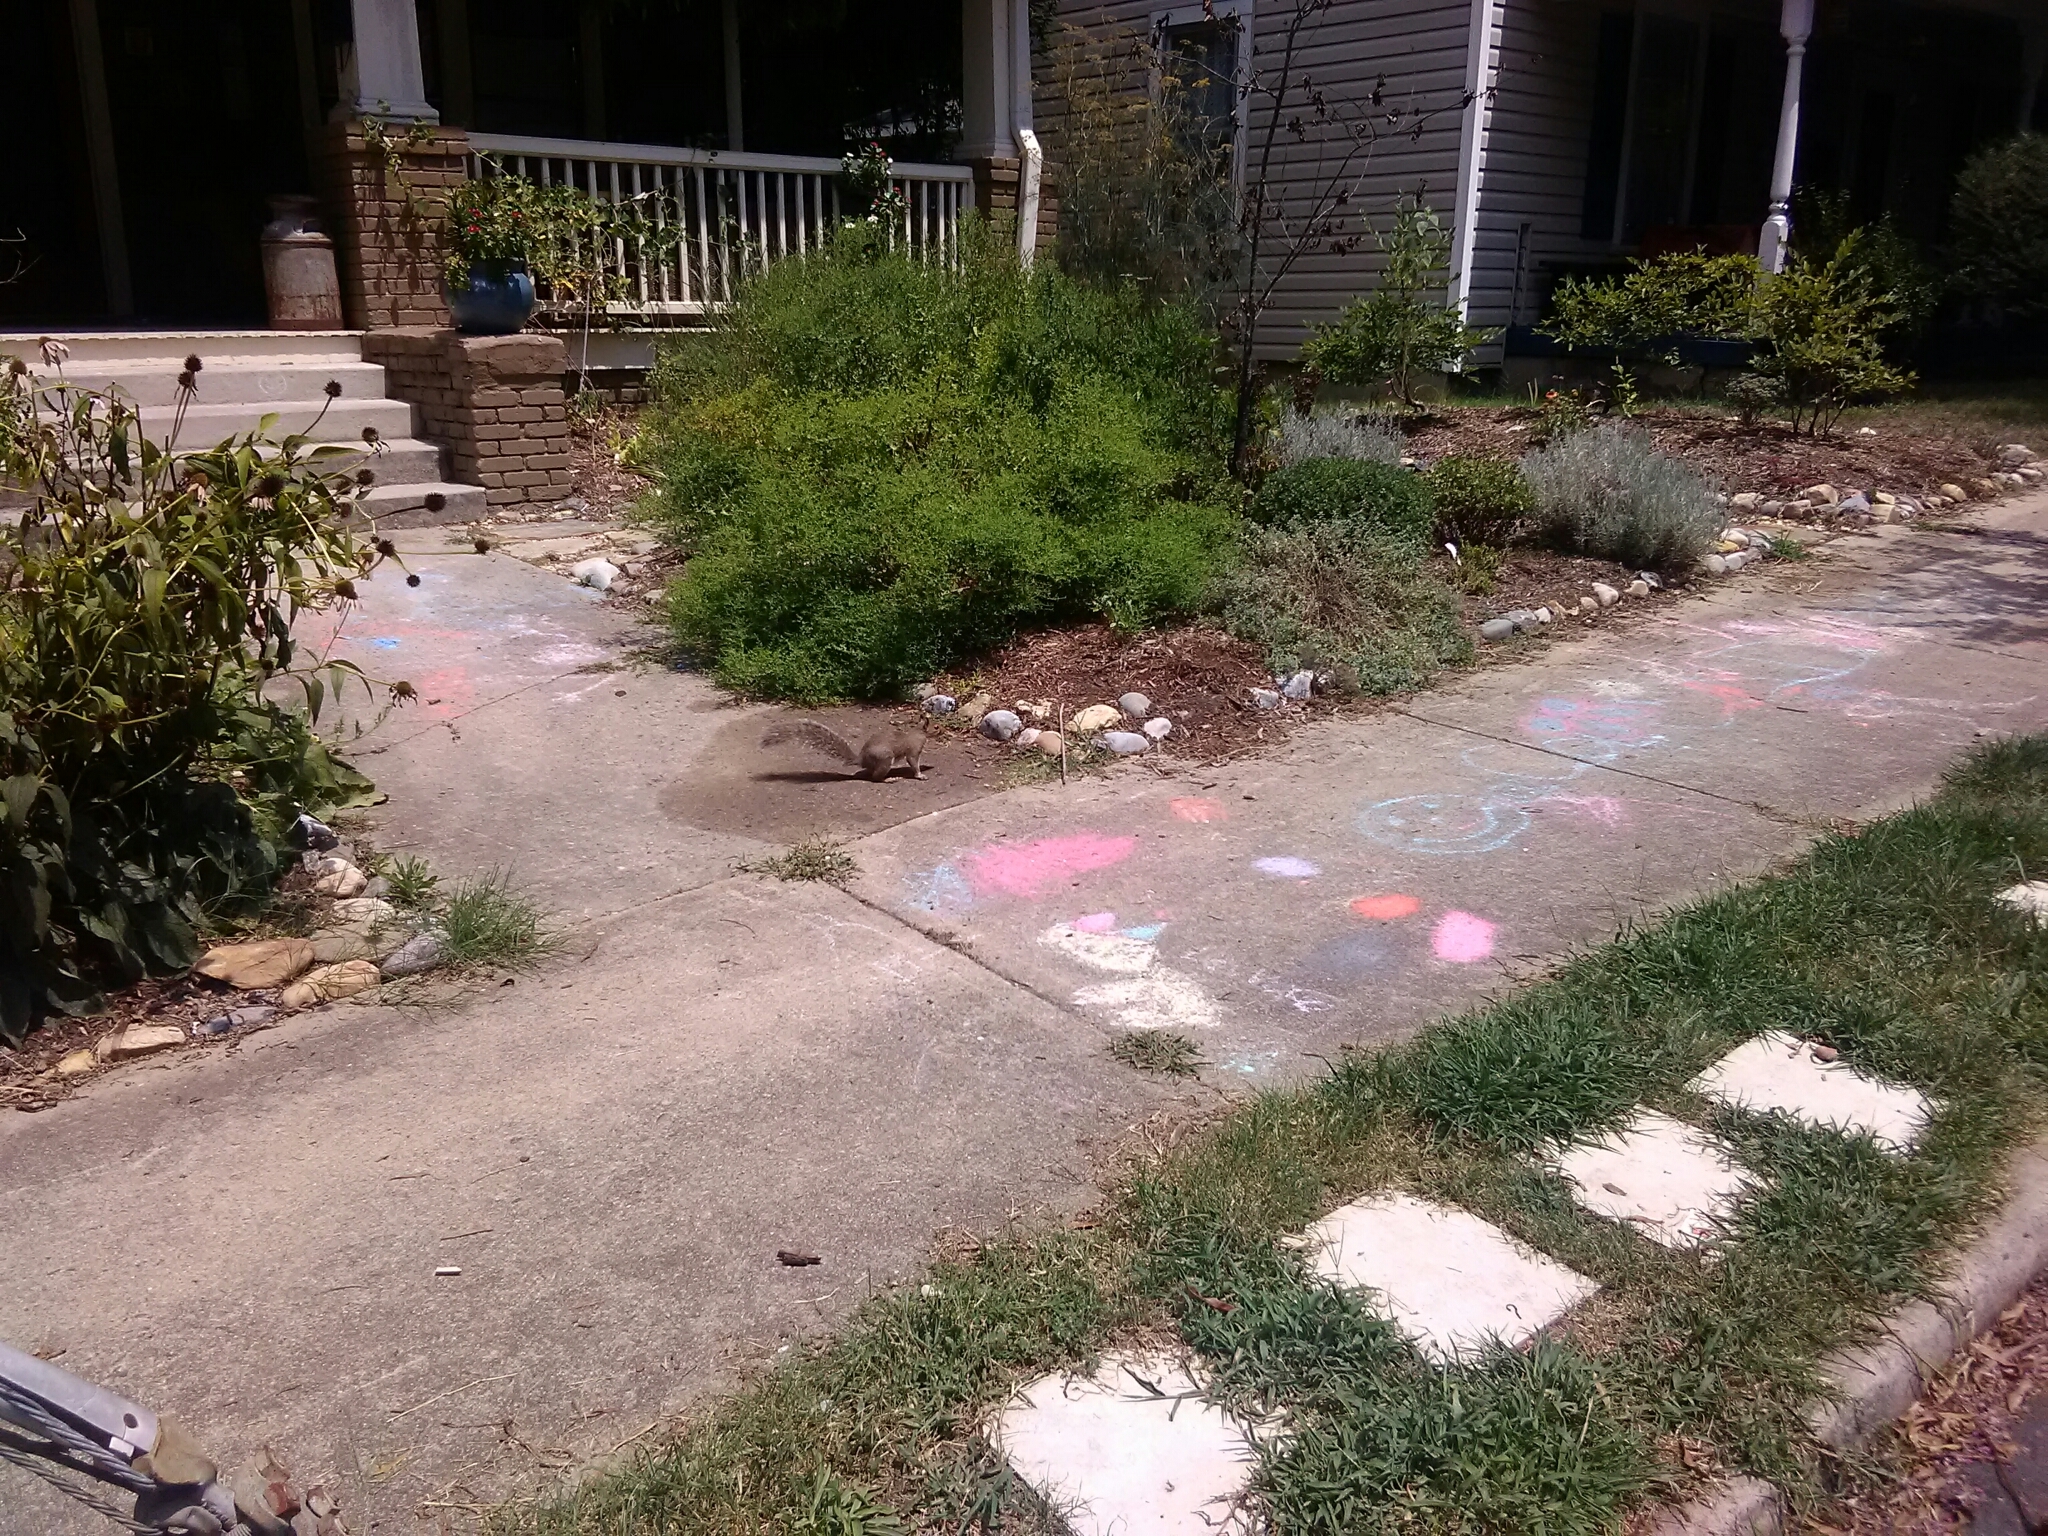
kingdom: Animalia
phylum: Chordata
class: Mammalia
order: Rodentia
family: Sciuridae
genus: Sciurus
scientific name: Sciurus carolinensis
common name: Eastern gray squirrel
